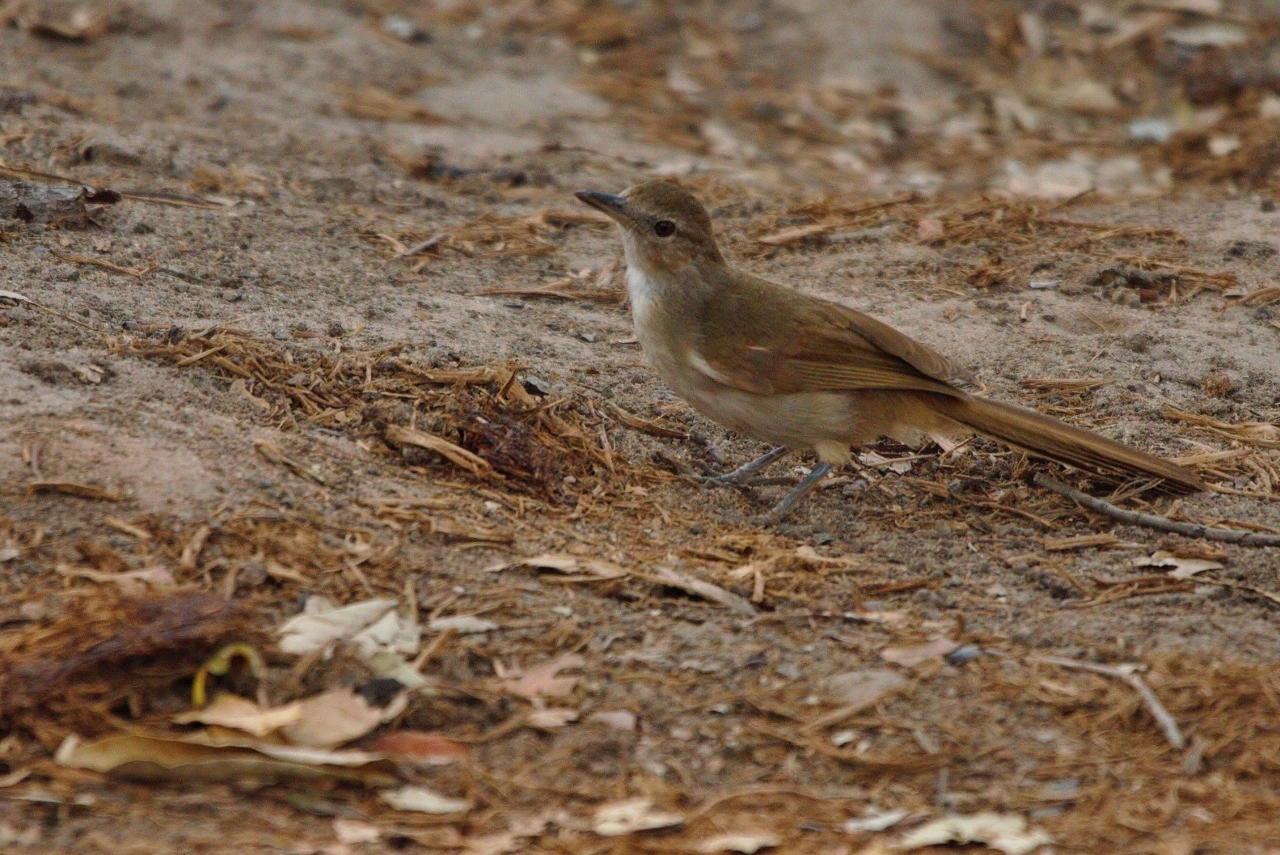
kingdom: Animalia
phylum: Chordata
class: Aves
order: Passeriformes
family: Pycnonotidae
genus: Phyllastrephus
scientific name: Phyllastrephus terrestris
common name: Terrestrial brownbul
